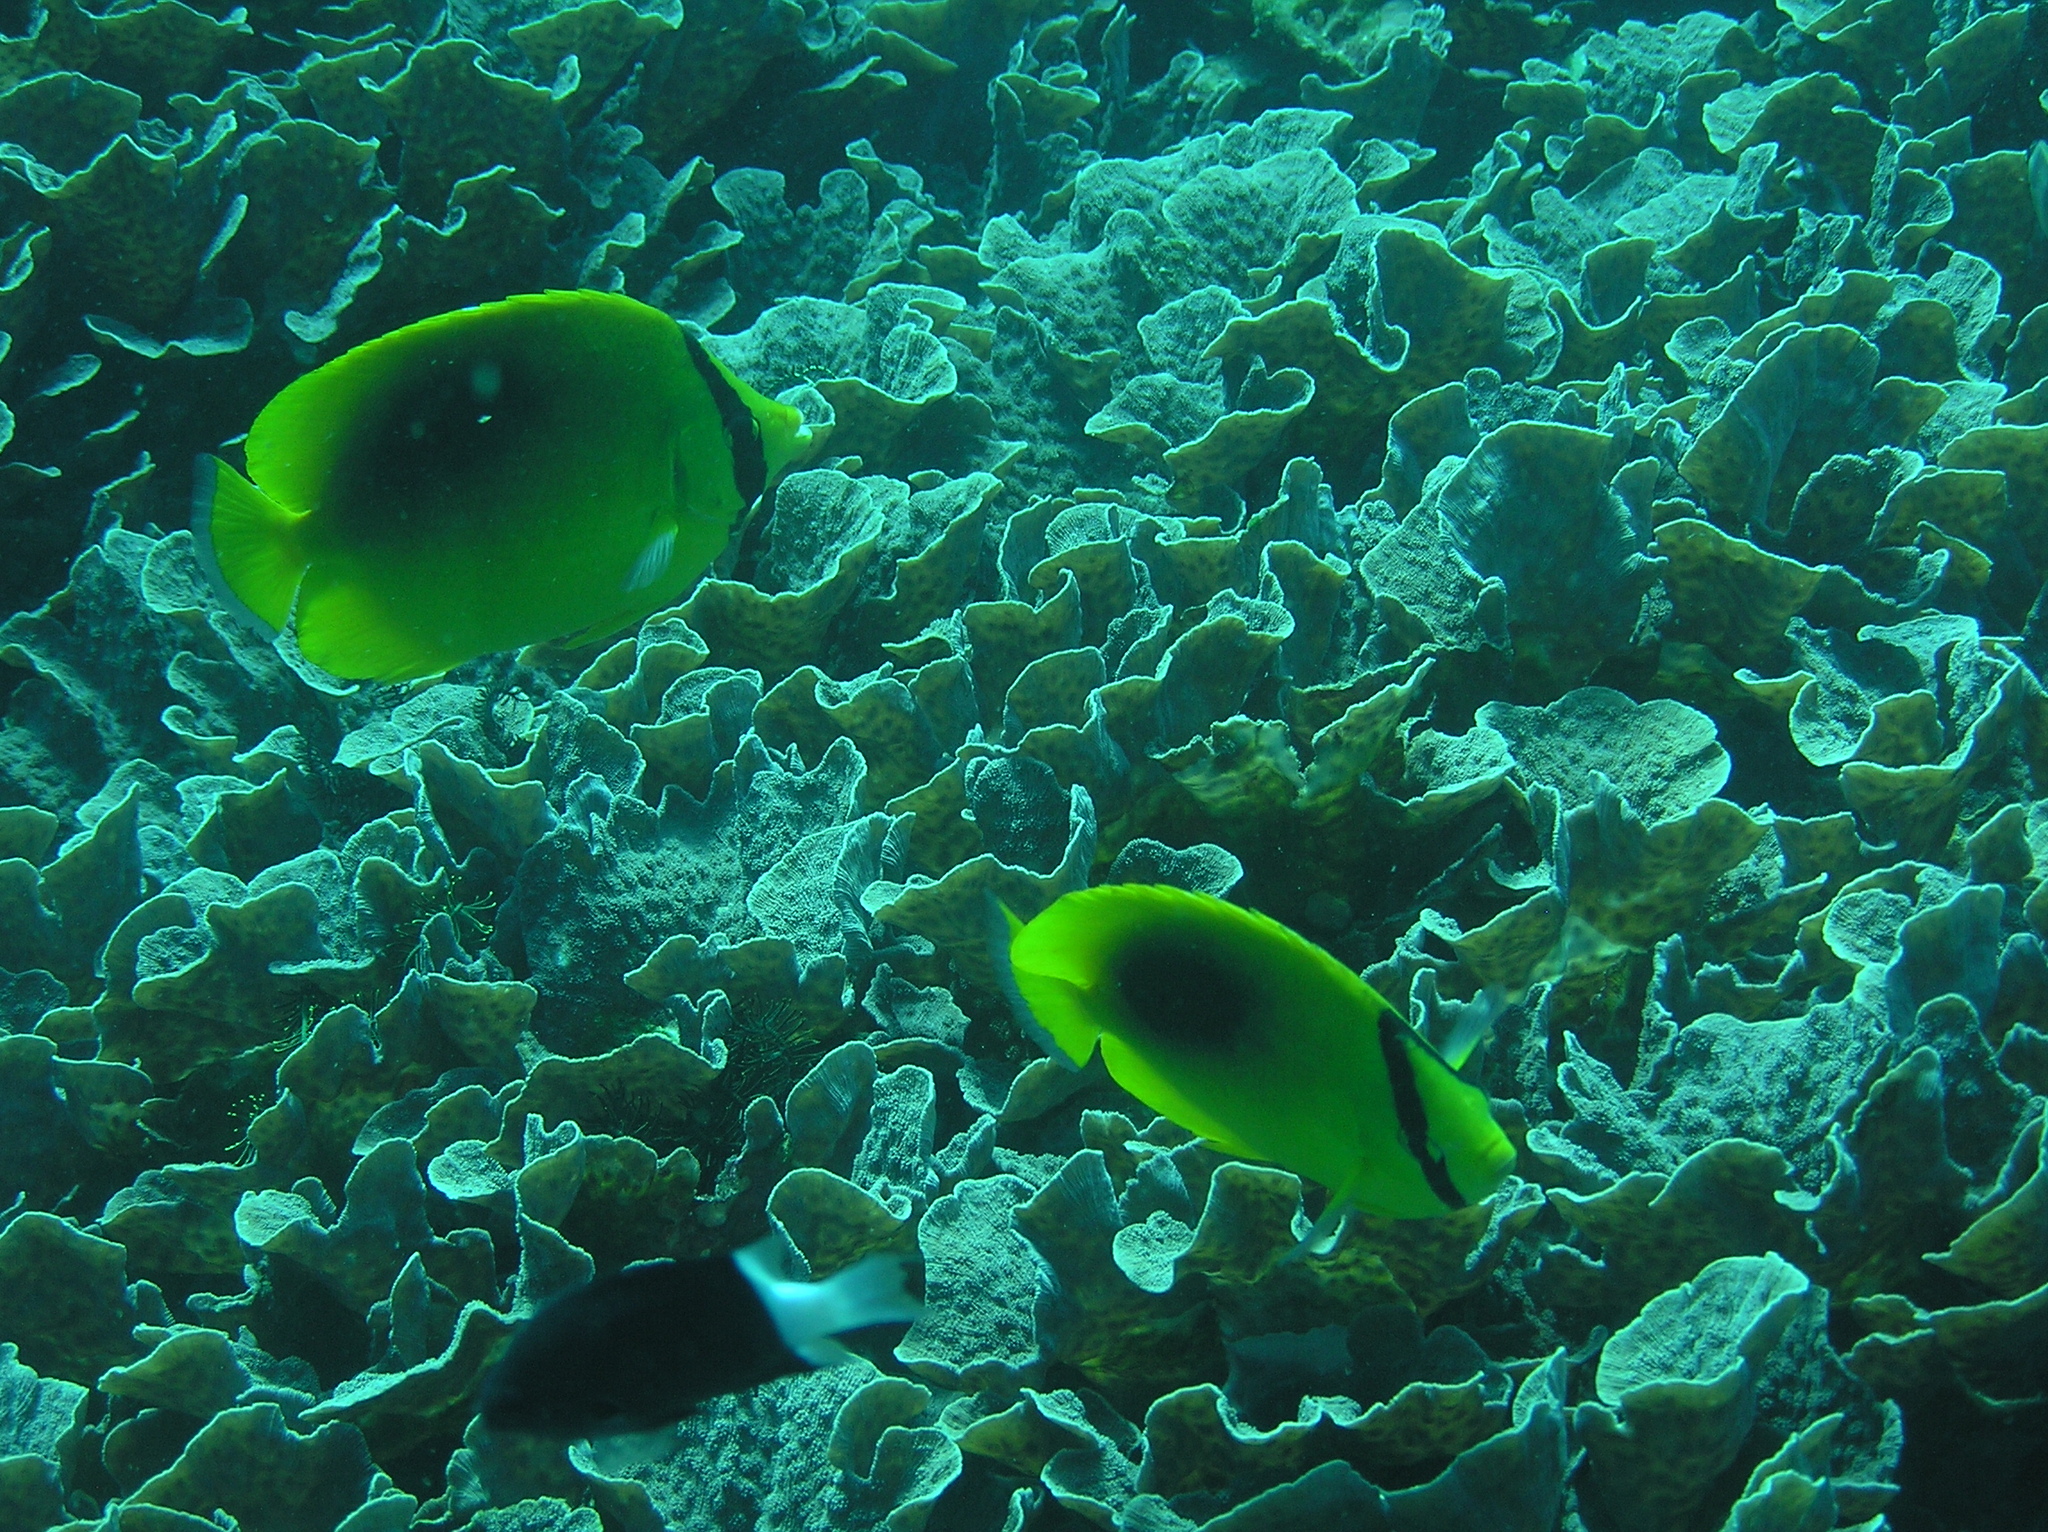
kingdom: Animalia
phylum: Chordata
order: Perciformes
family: Chaetodontidae
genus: Chaetodon
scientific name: Chaetodon speculum
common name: Mirror butterflyfish
